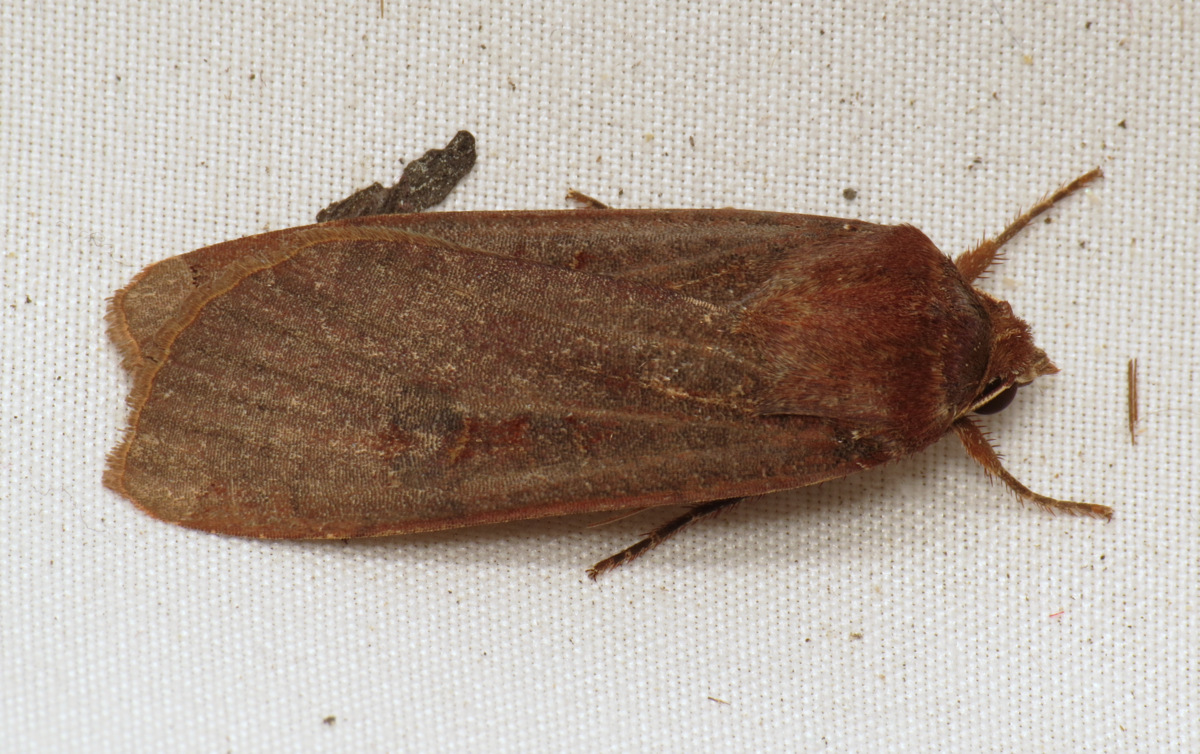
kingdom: Animalia
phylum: Arthropoda
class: Insecta
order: Lepidoptera
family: Noctuidae
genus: Noctua
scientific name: Noctua pronuba
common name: Large yellow underwing
